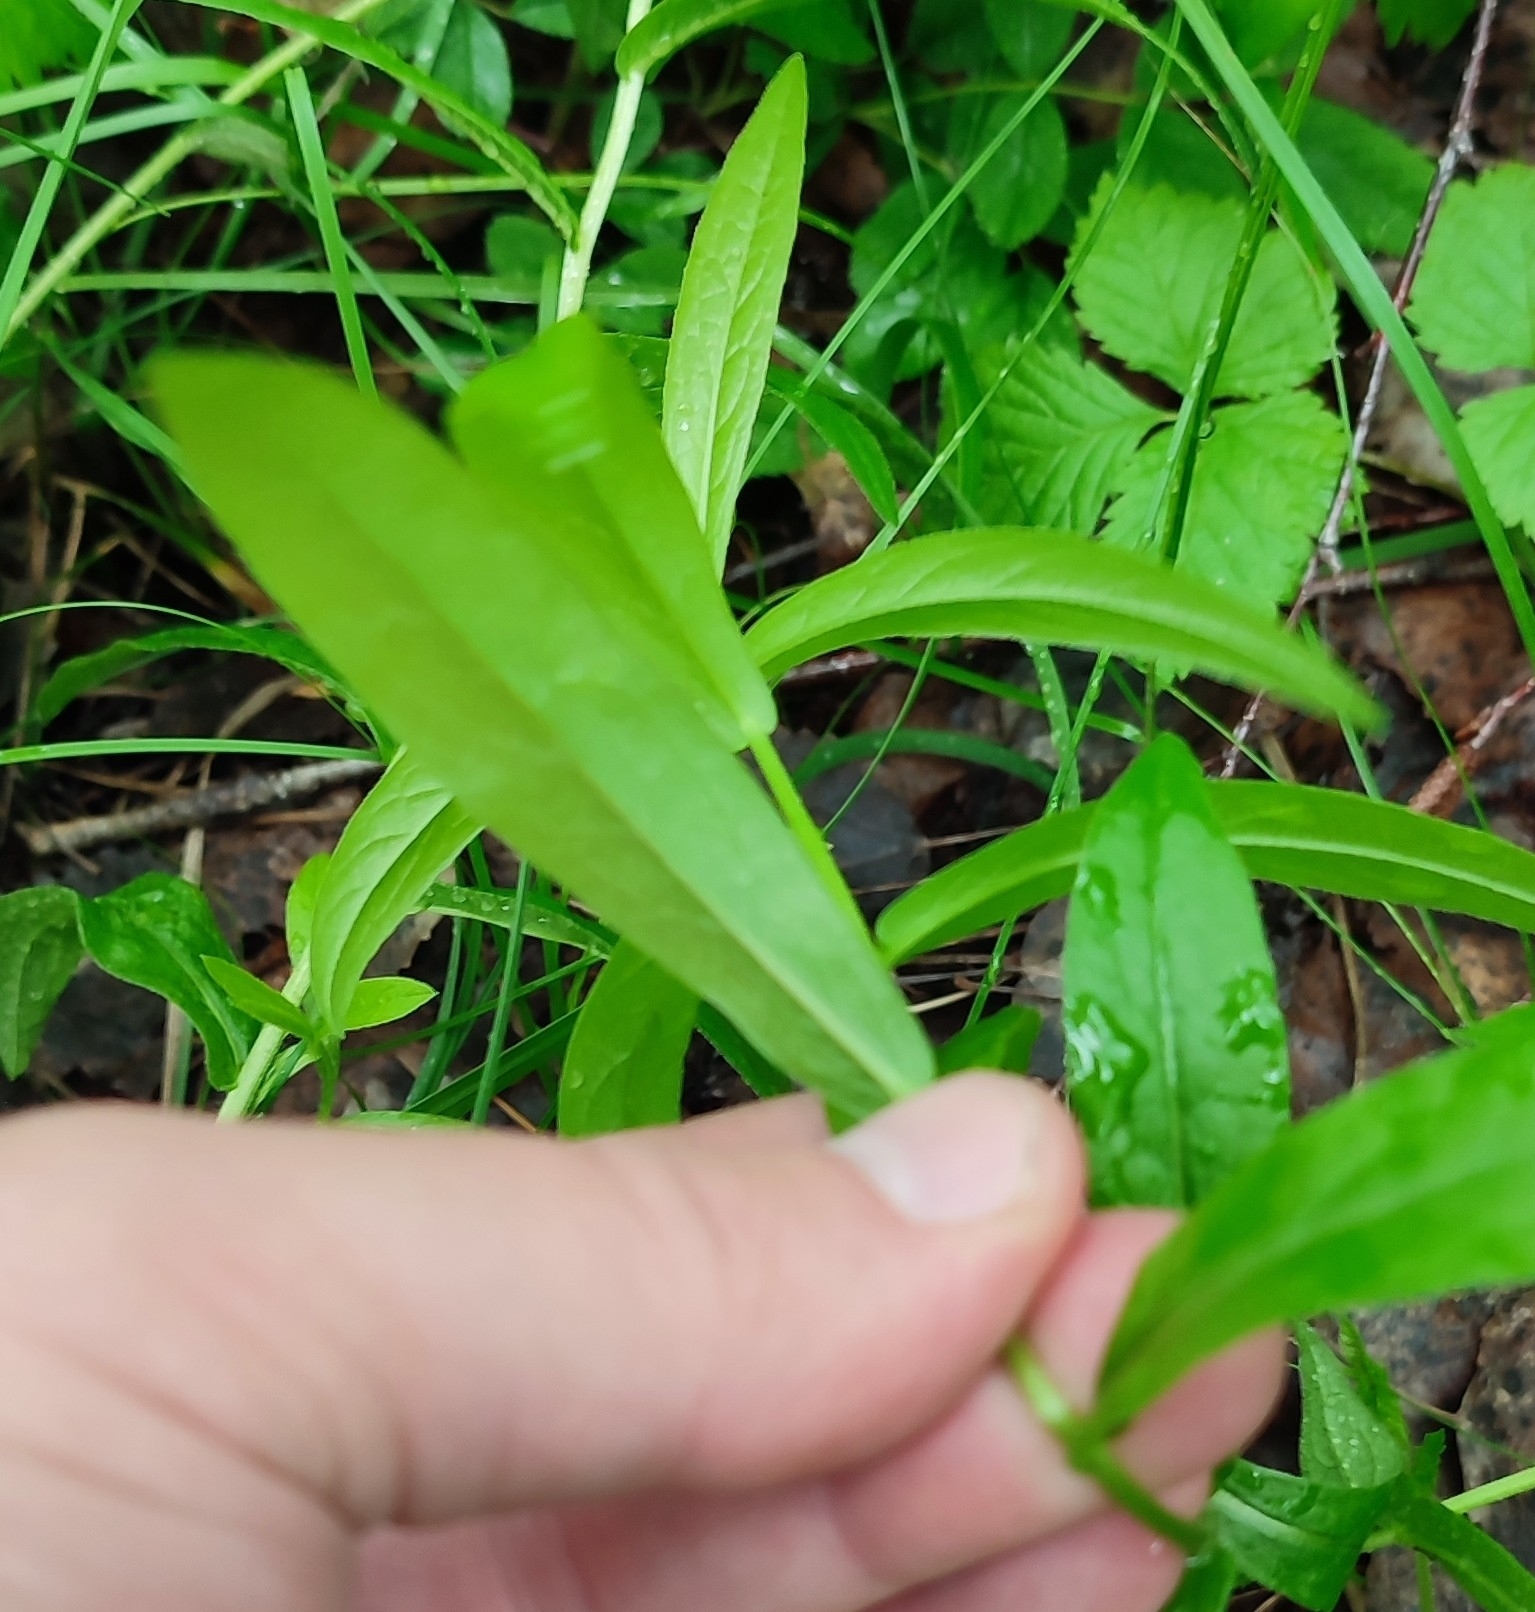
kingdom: Plantae
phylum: Tracheophyta
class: Magnoliopsida
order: Asterales
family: Asteraceae
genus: Pentanema
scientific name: Pentanema salicinum
